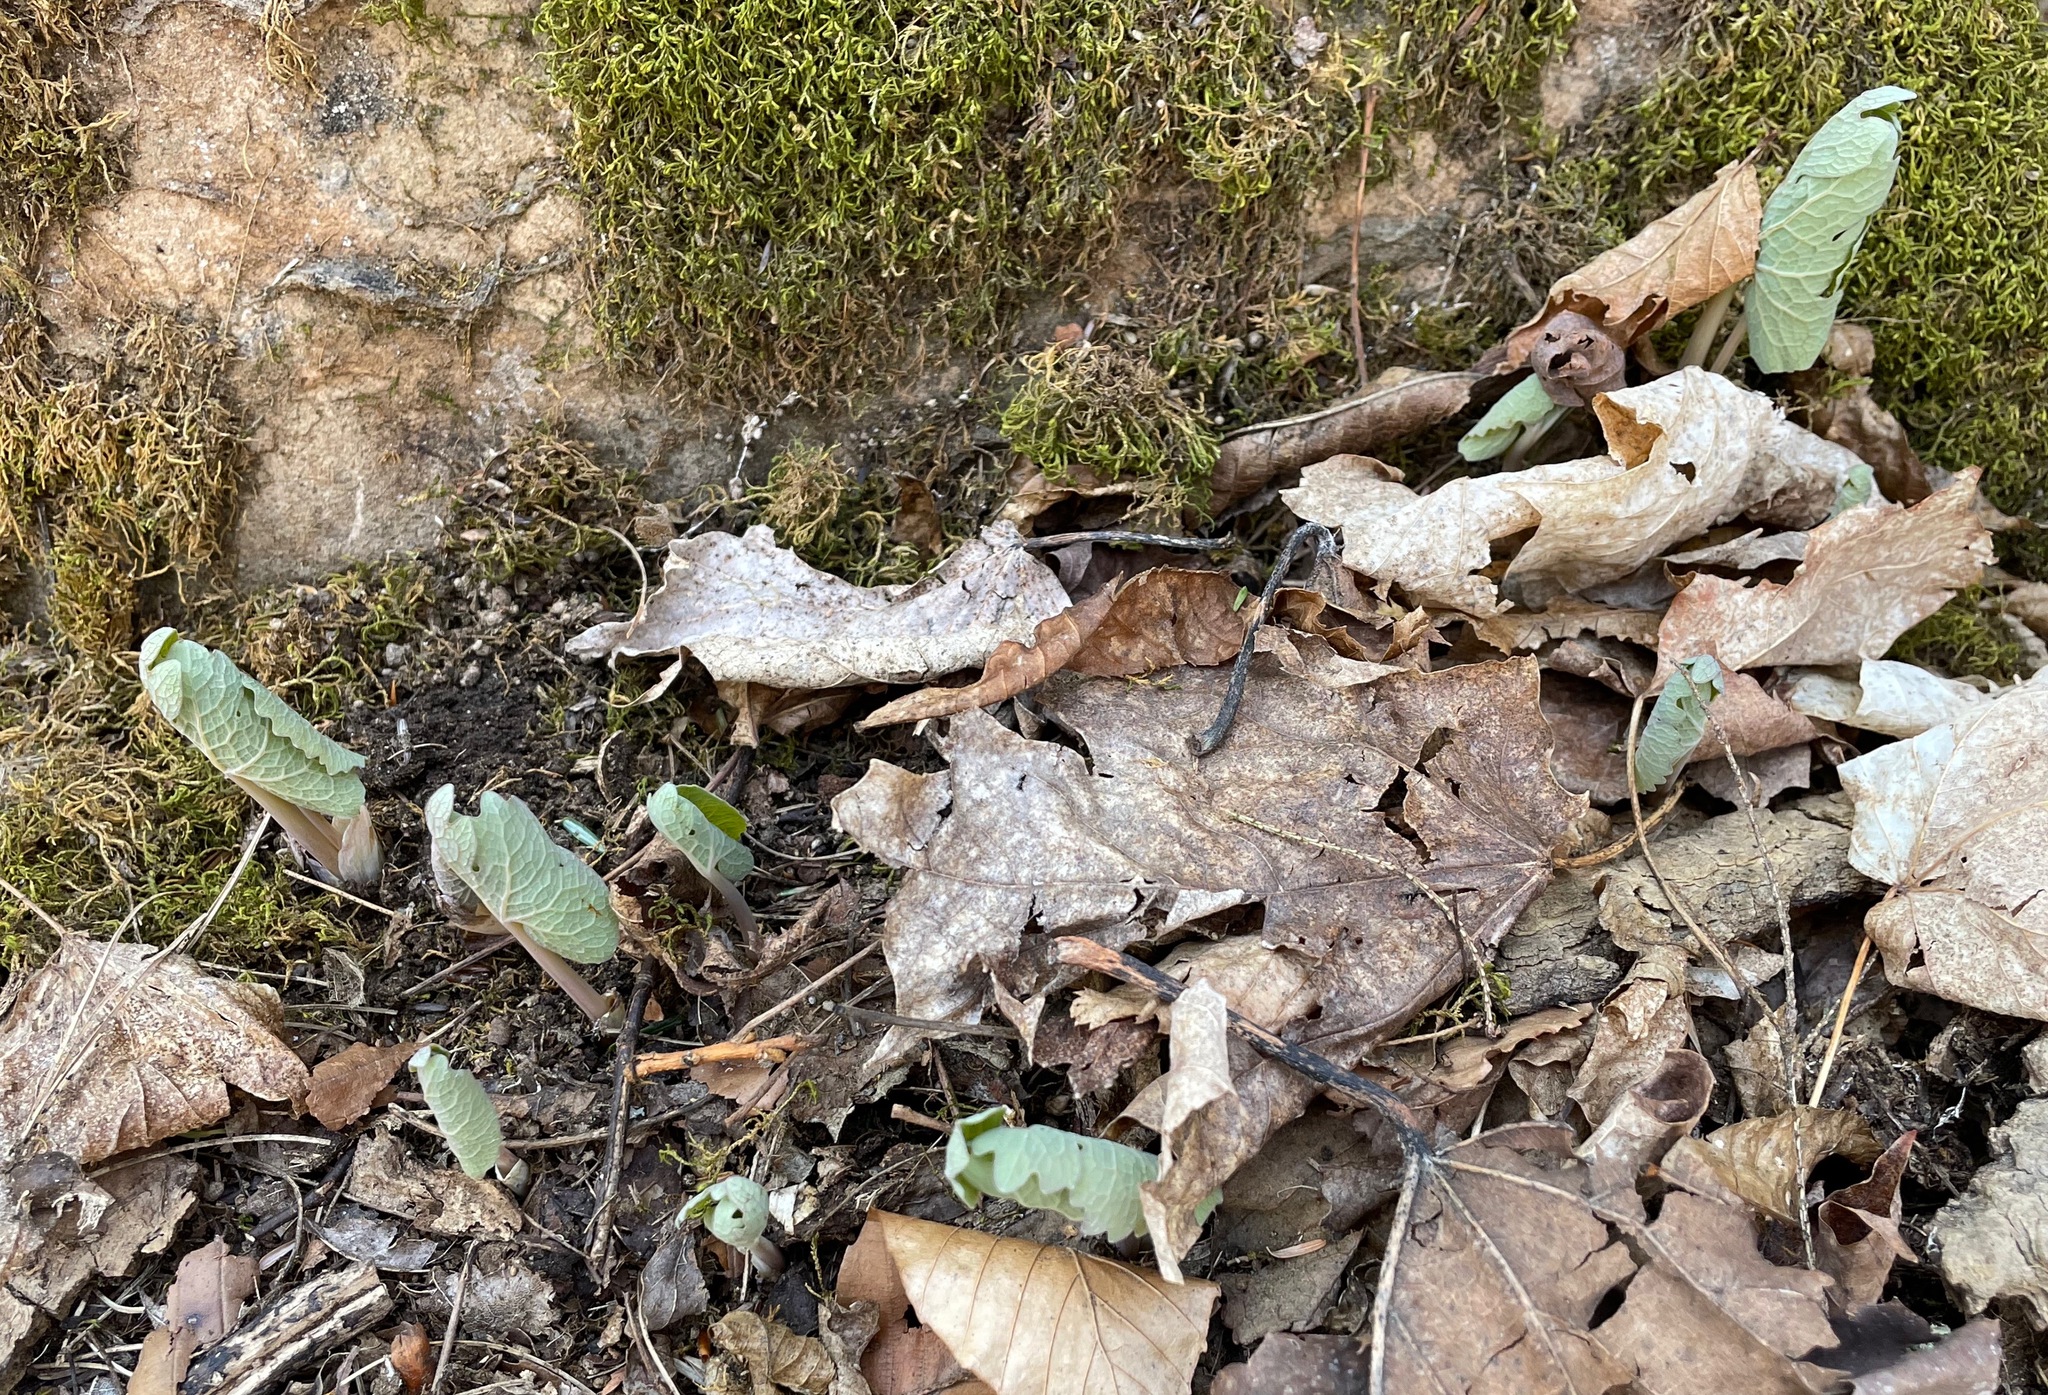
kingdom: Plantae
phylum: Tracheophyta
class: Magnoliopsida
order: Ranunculales
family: Papaveraceae
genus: Sanguinaria
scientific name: Sanguinaria canadensis
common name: Bloodroot
